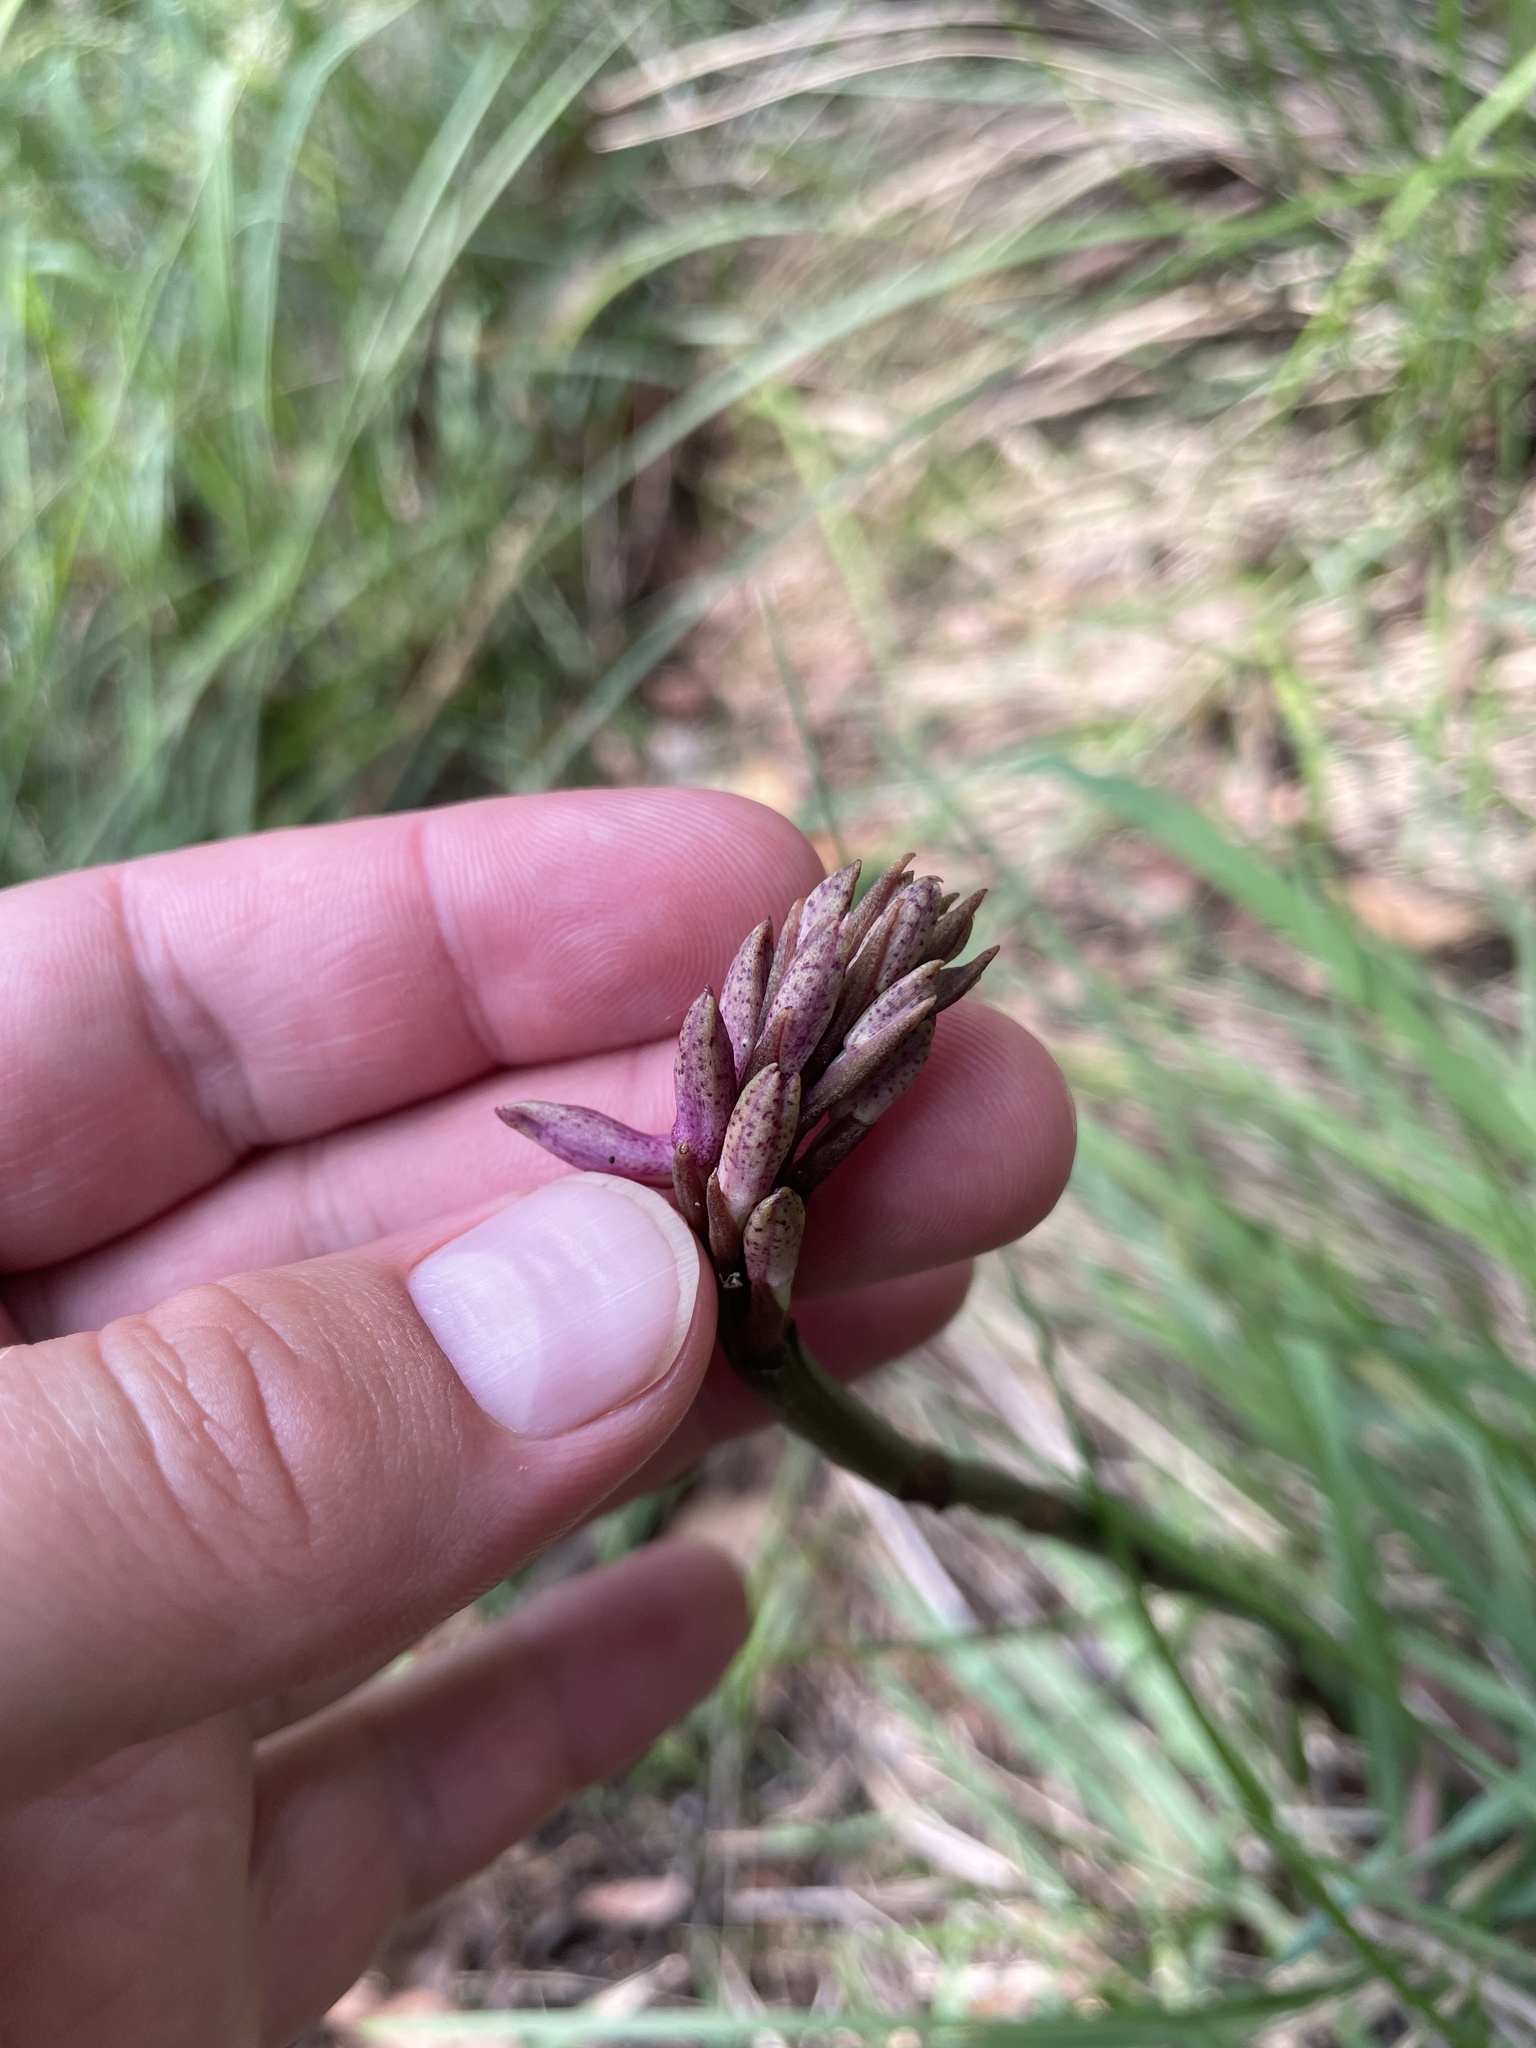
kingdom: Plantae
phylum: Tracheophyta
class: Liliopsida
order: Asparagales
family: Orchidaceae
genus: Dipodium
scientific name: Dipodium
